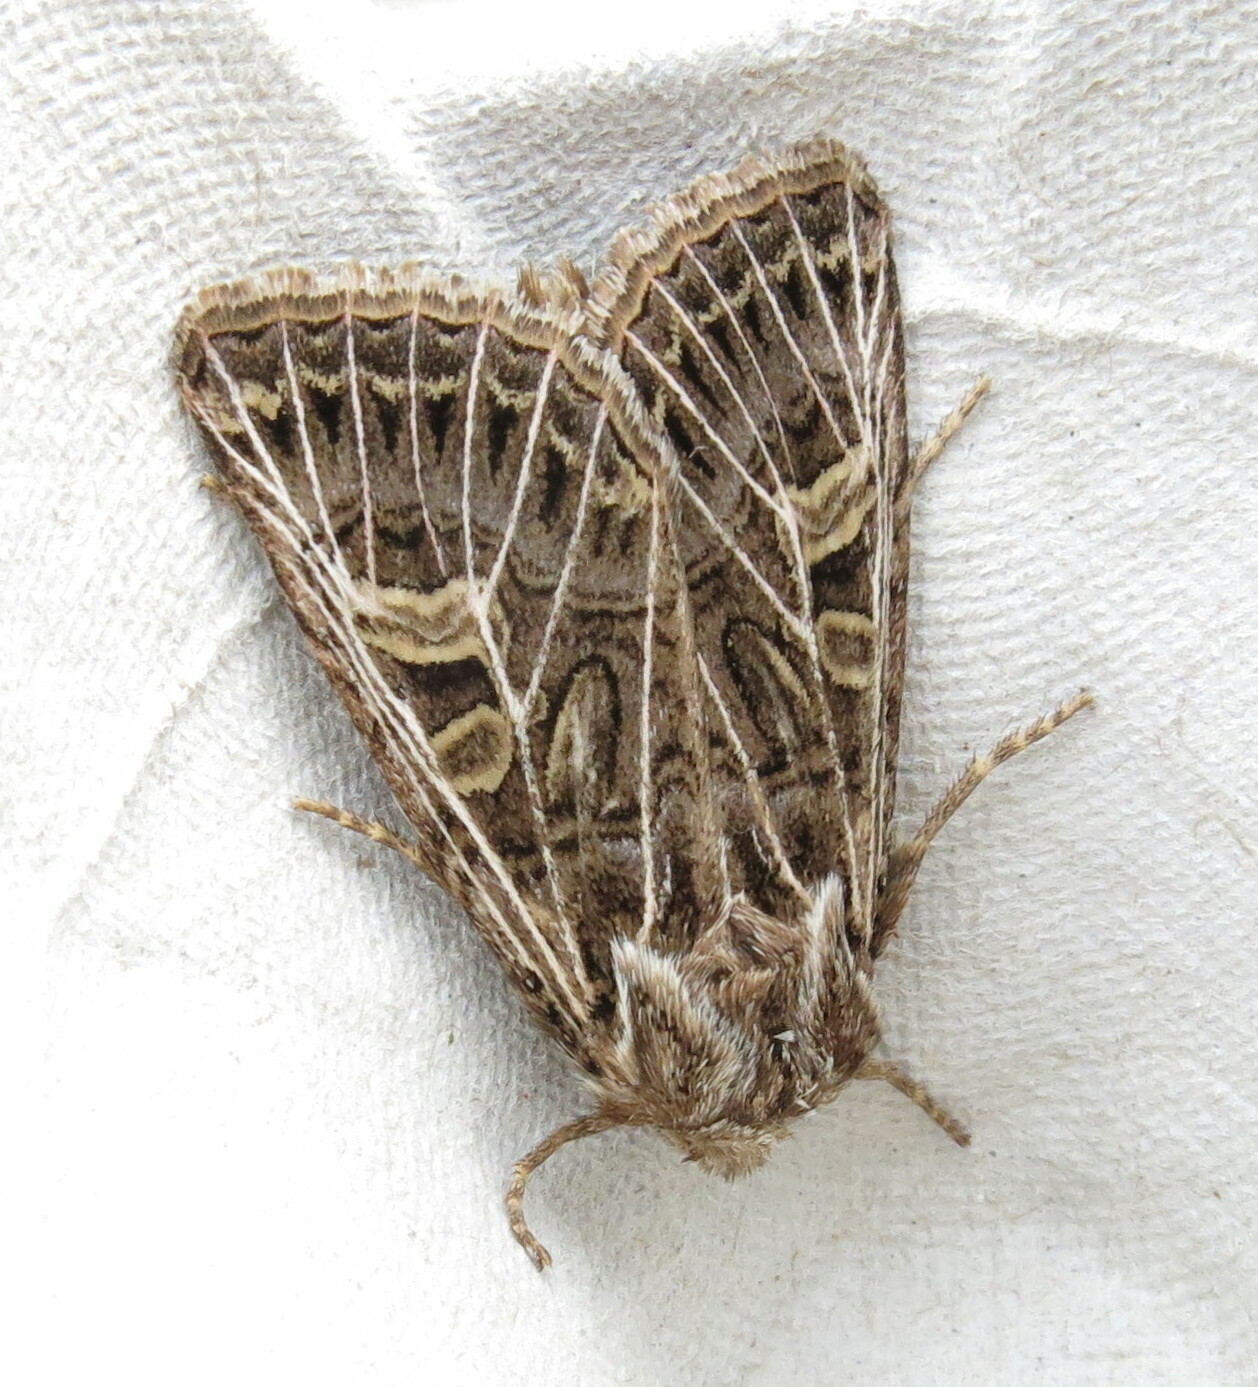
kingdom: Animalia
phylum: Arthropoda
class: Insecta
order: Lepidoptera
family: Noctuidae
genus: Tholera
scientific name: Tholera decimalis
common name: Feathered gothic
